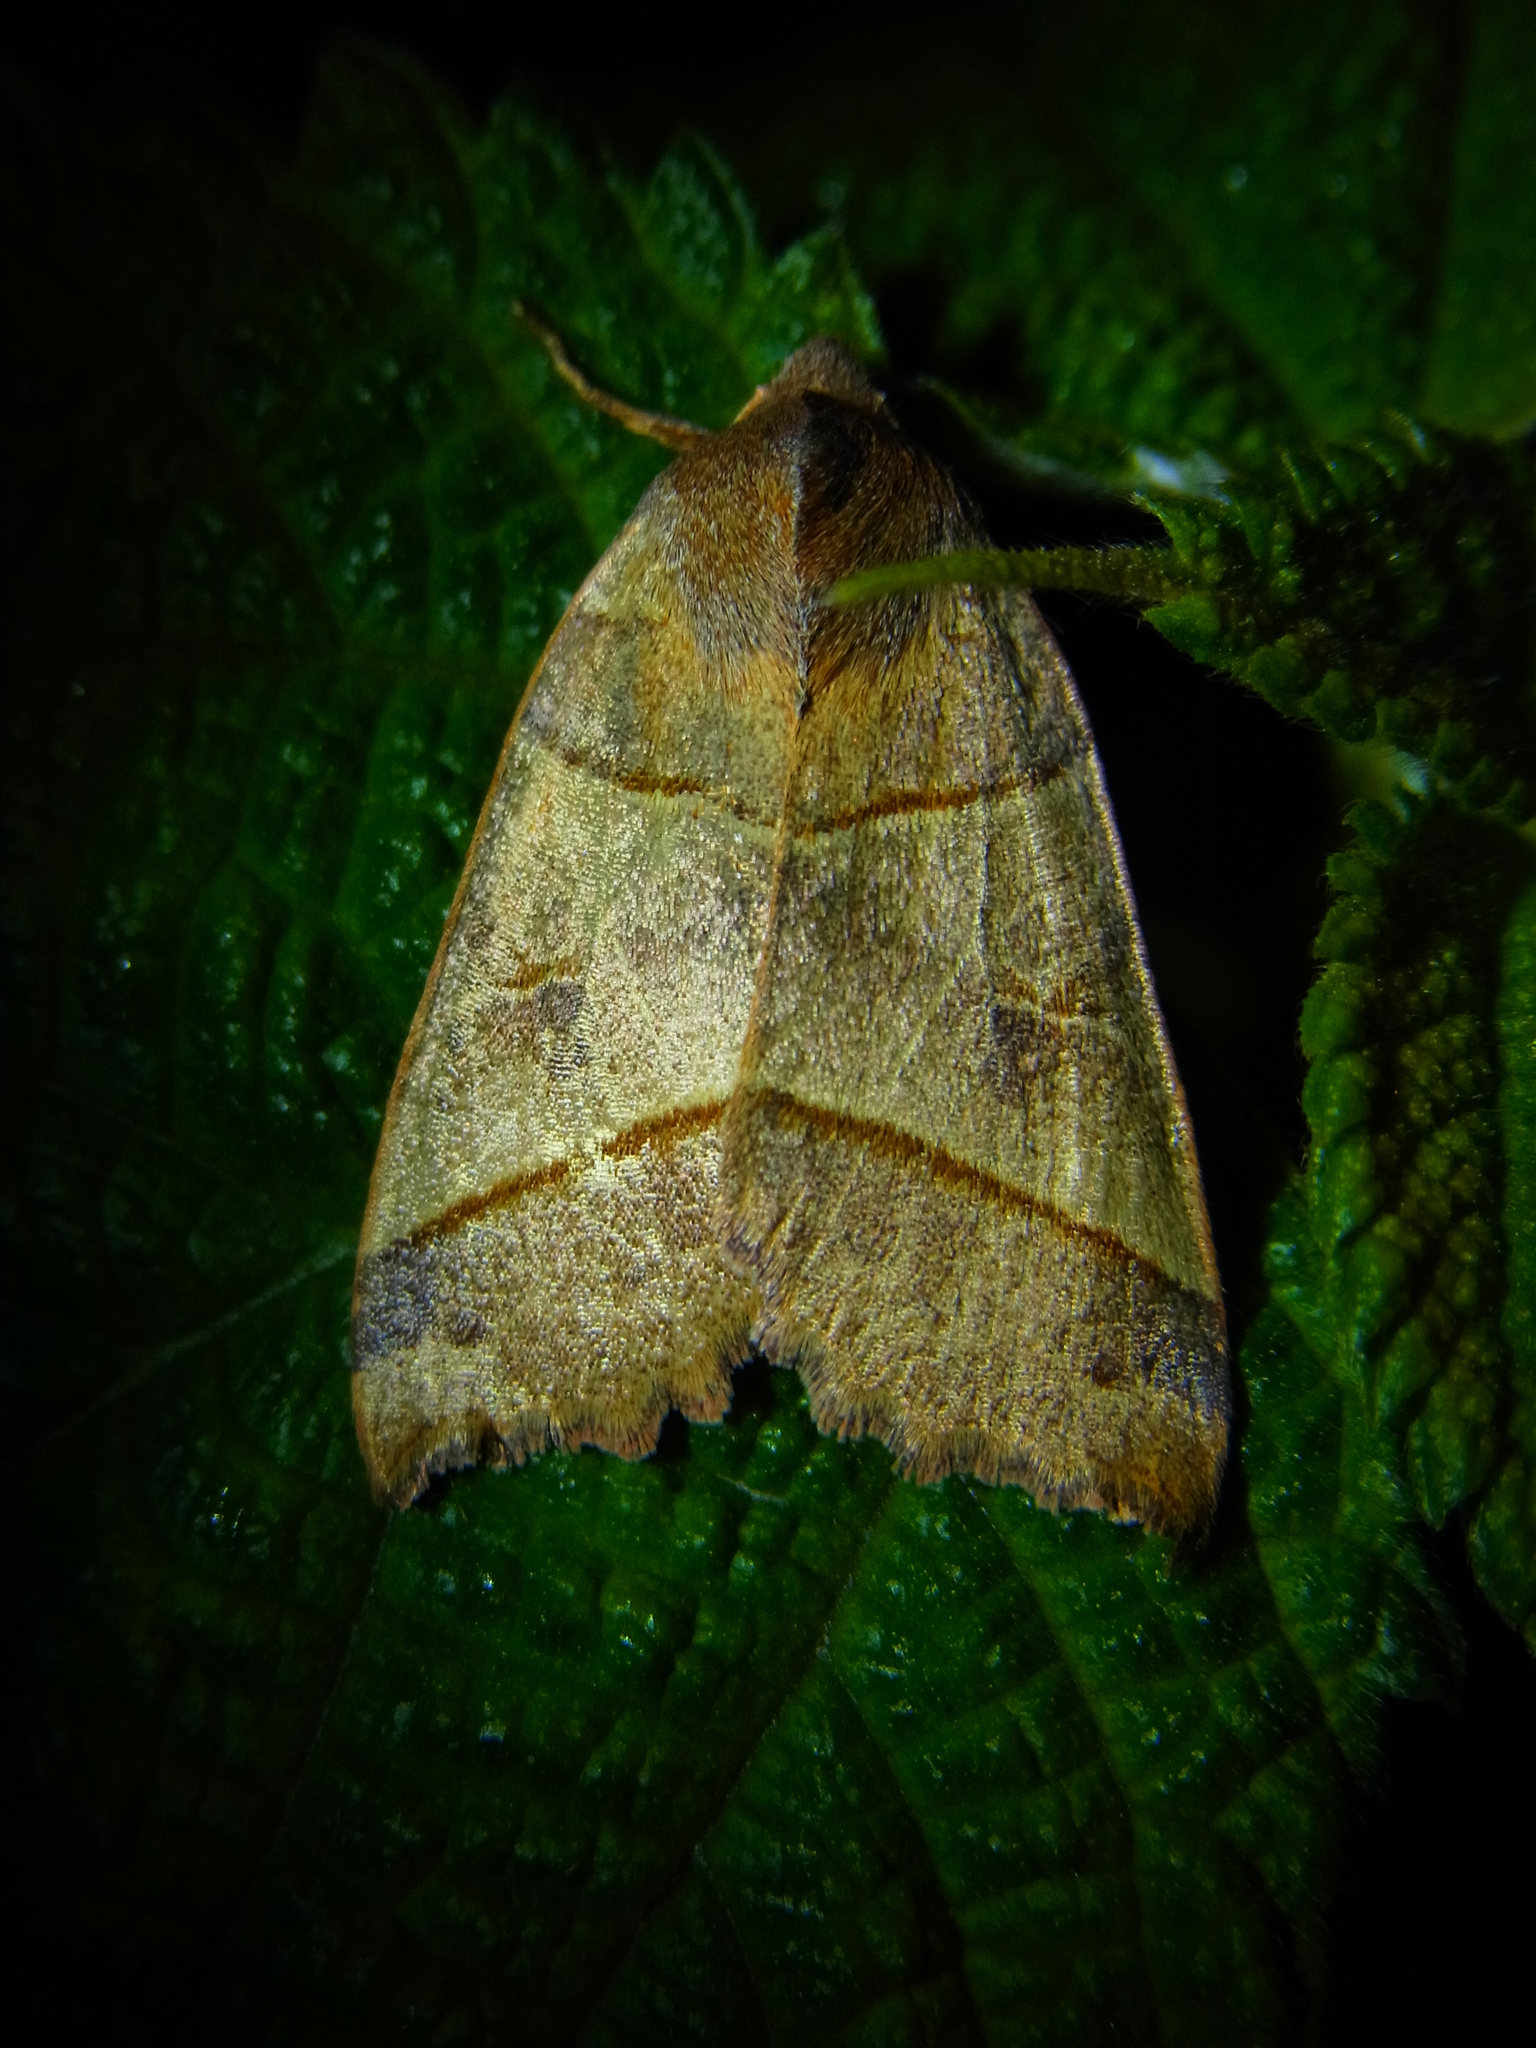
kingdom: Animalia
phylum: Arthropoda
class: Insecta
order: Lepidoptera
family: Noctuidae
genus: Telorta
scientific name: Telorta acuminata
